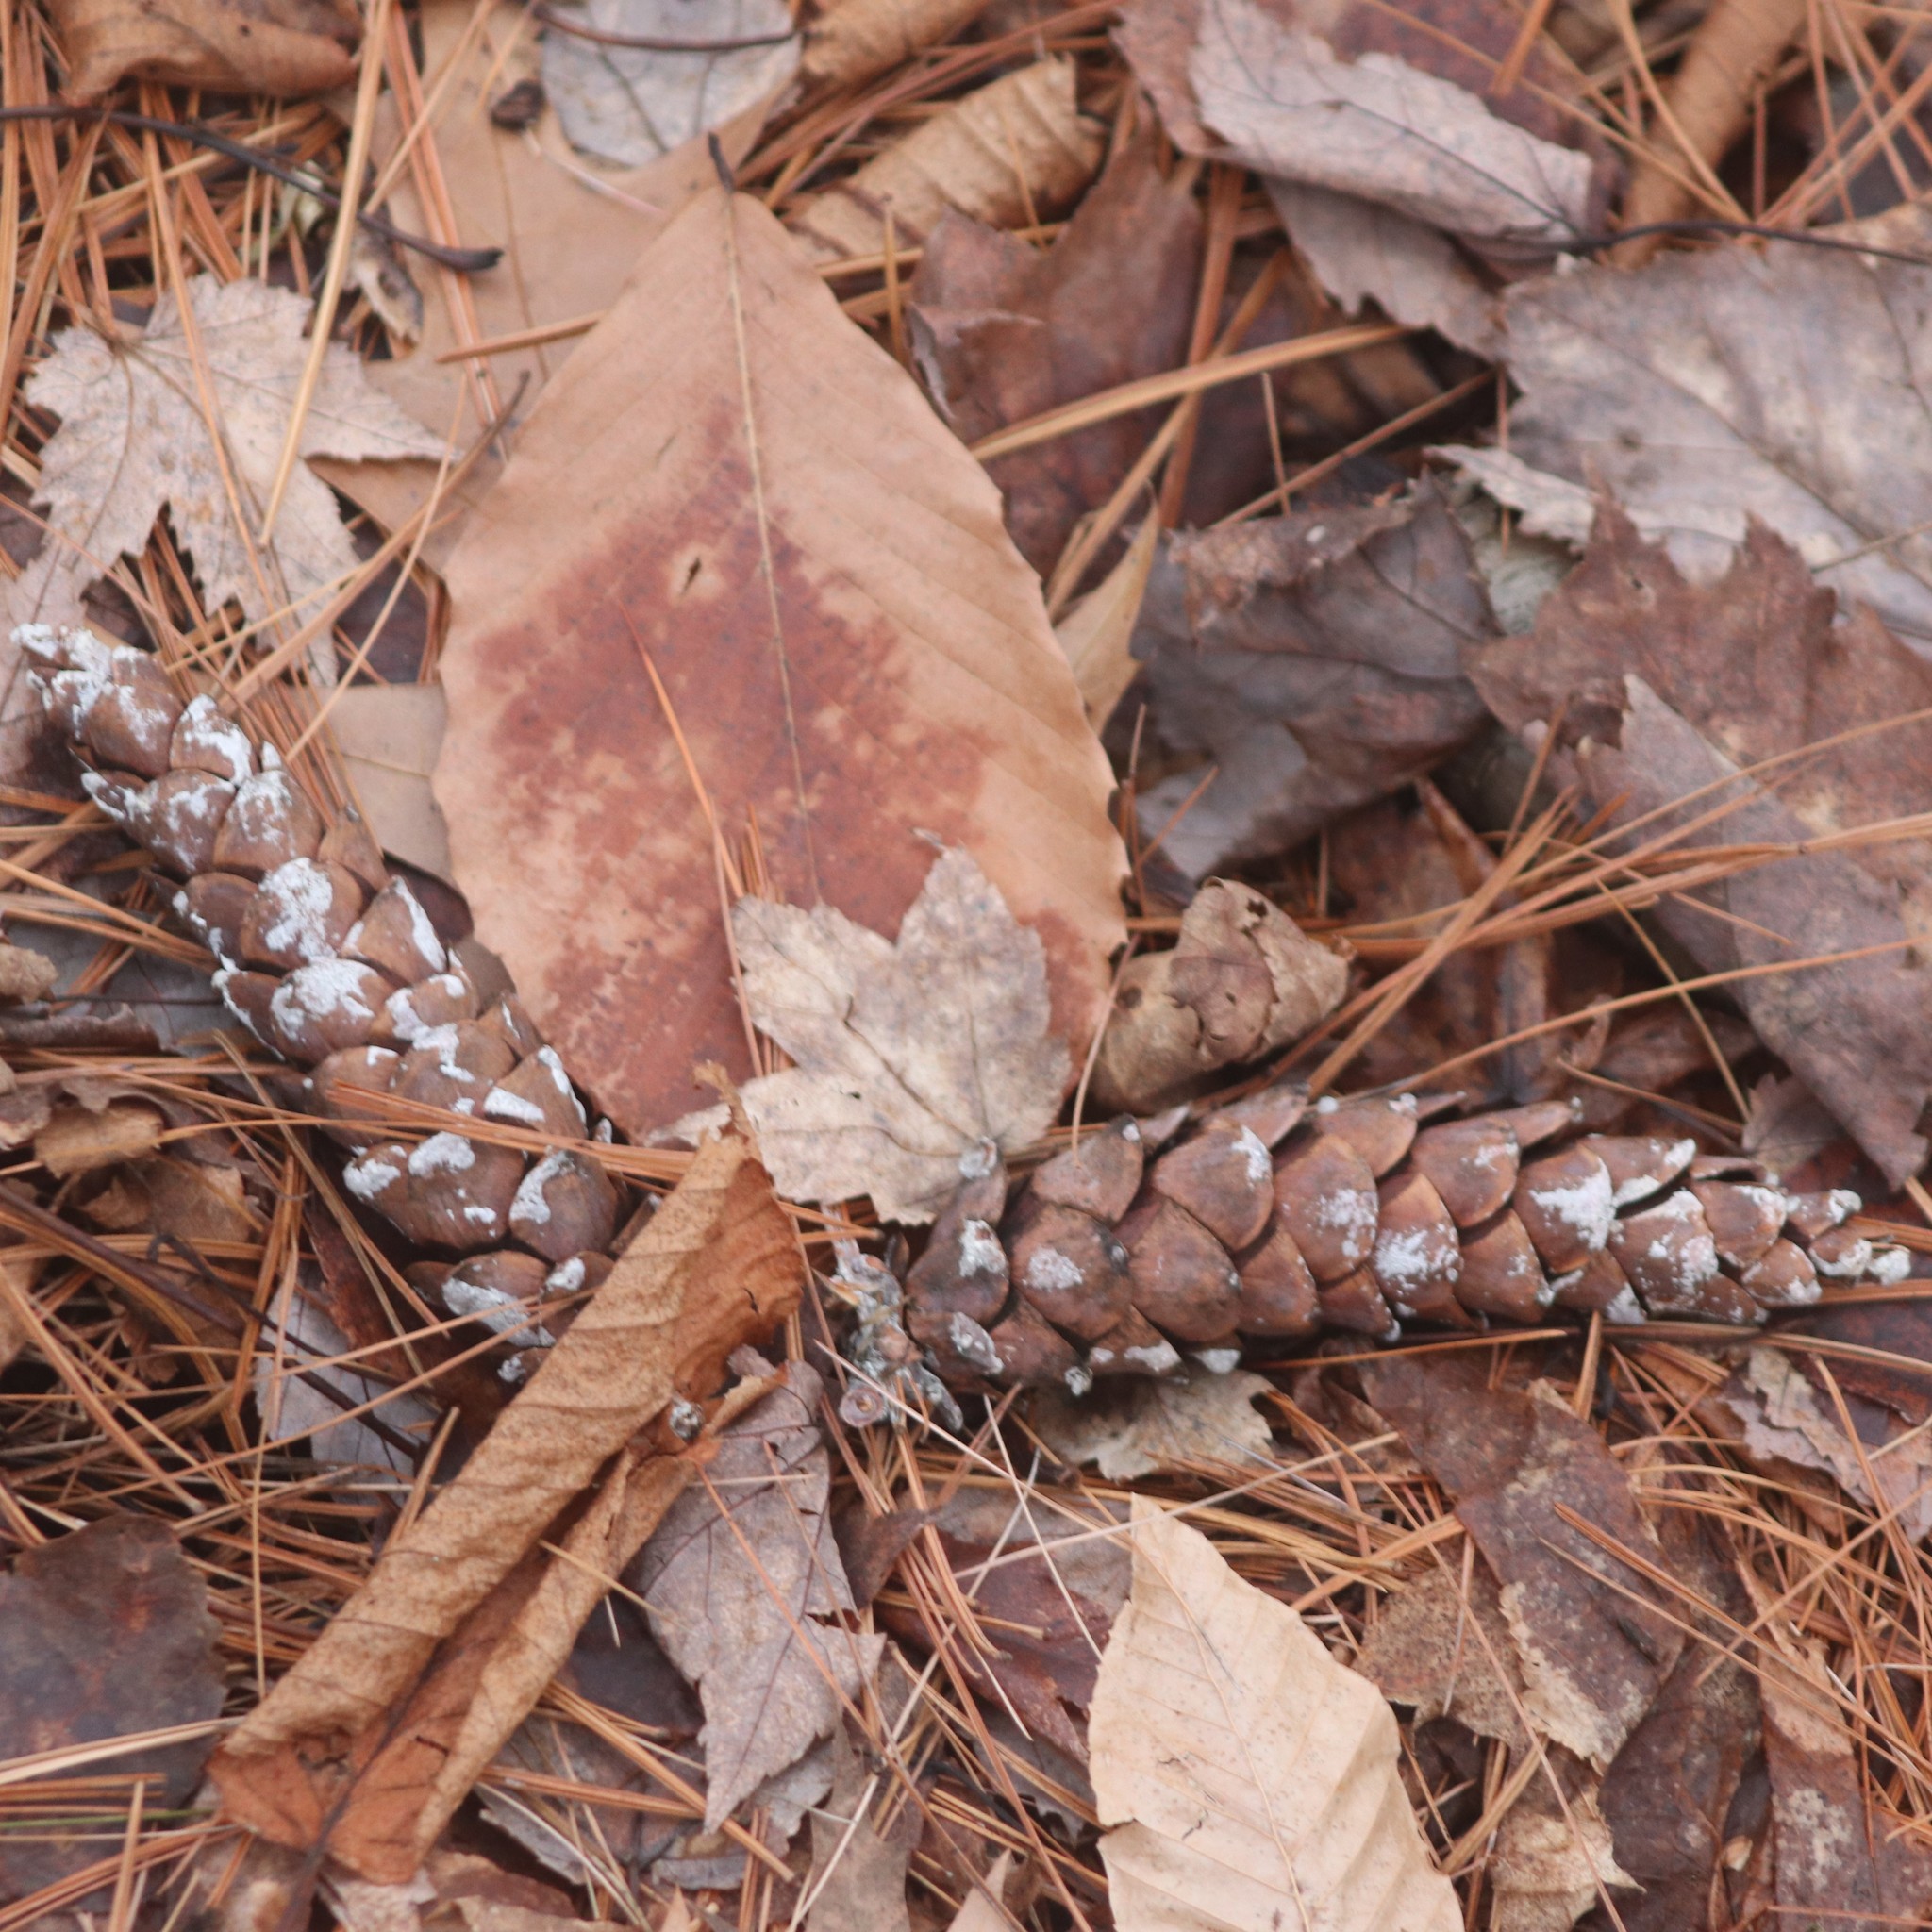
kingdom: Plantae
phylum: Tracheophyta
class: Pinopsida
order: Pinales
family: Pinaceae
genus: Pinus
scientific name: Pinus strobus
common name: Weymouth pine
